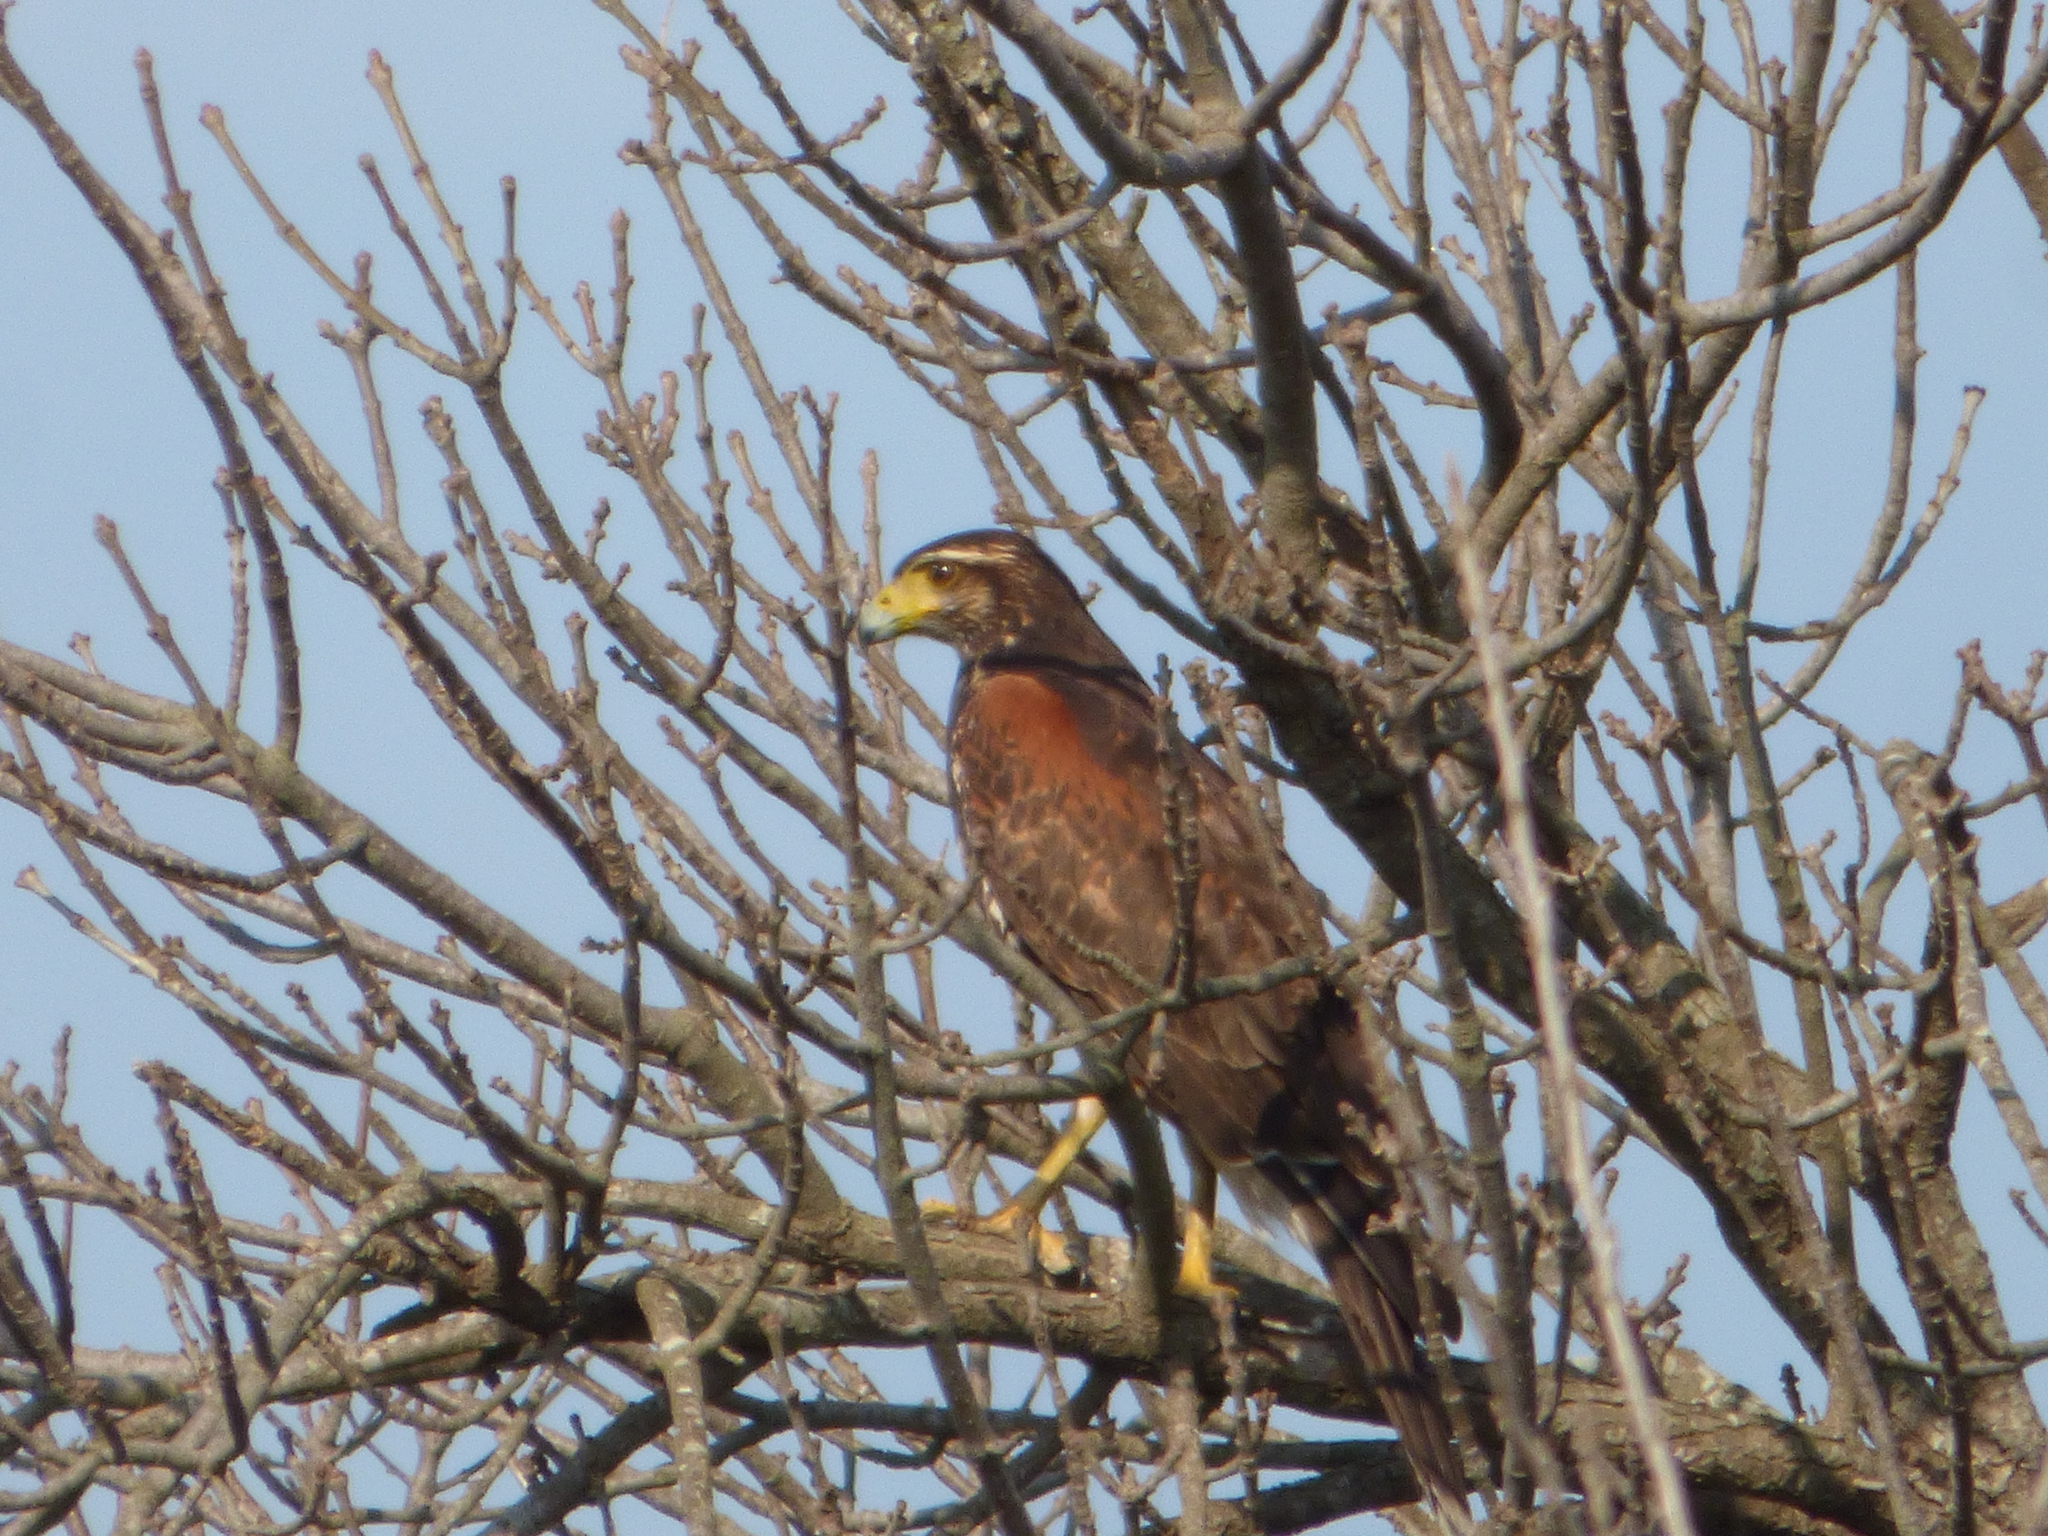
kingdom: Animalia
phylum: Chordata
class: Aves
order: Accipitriformes
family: Accipitridae
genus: Parabuteo
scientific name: Parabuteo unicinctus
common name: Harris's hawk
